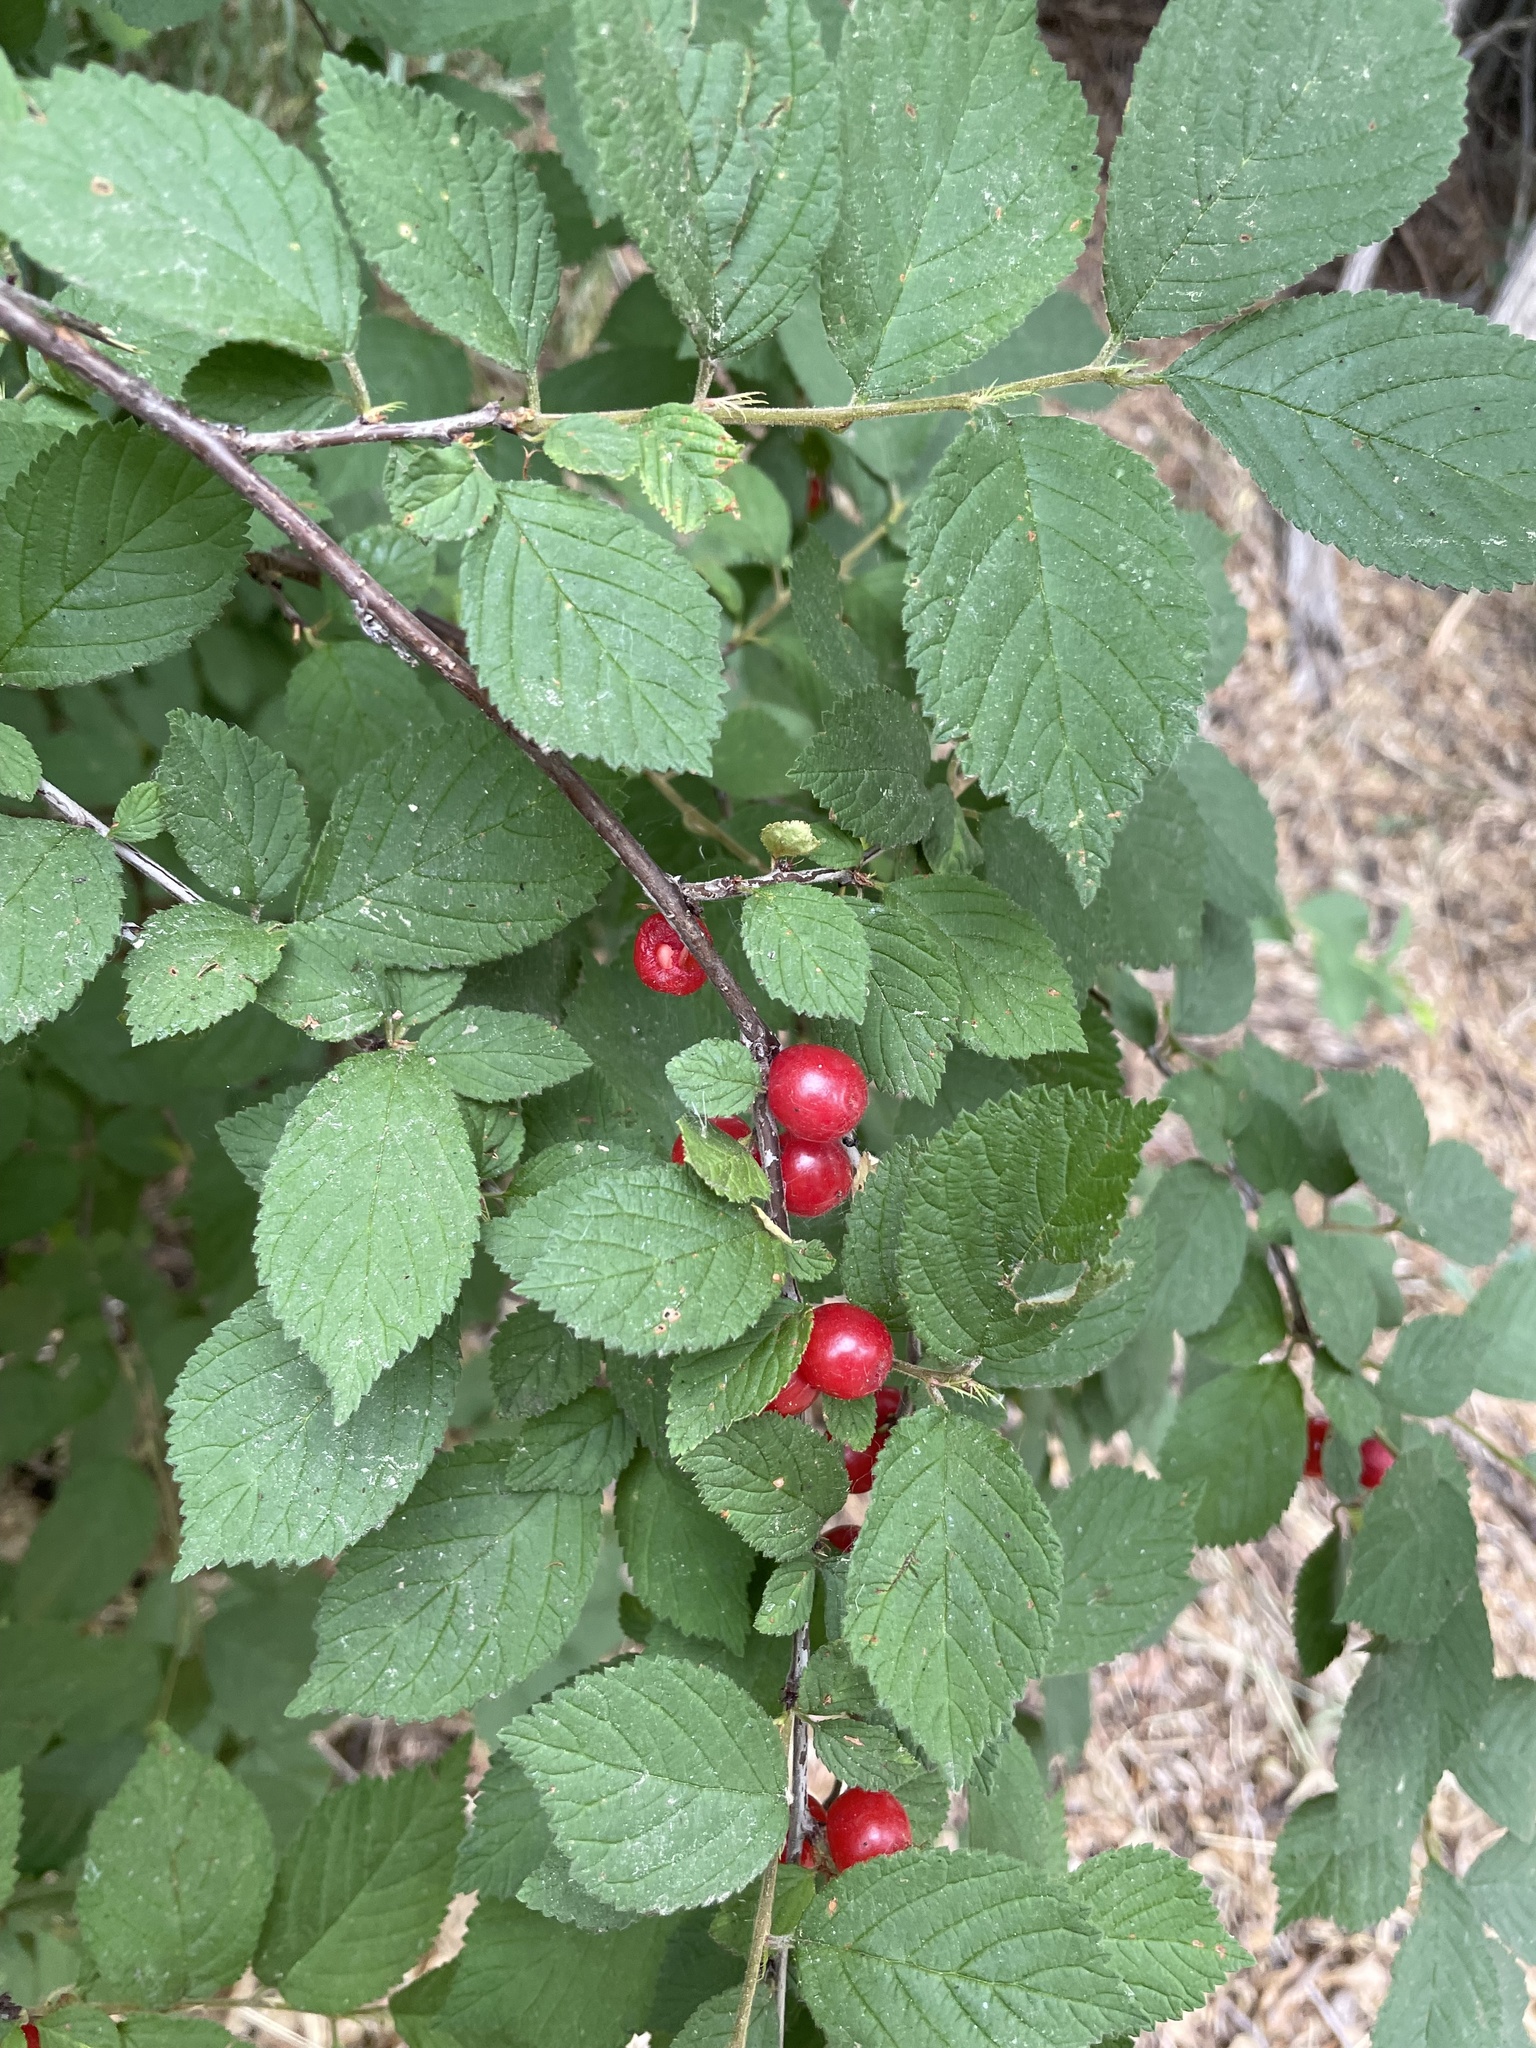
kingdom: Plantae
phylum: Tracheophyta
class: Magnoliopsida
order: Rosales
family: Rosaceae
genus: Prunus
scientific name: Prunus tomentosa
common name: Nanking cherry
